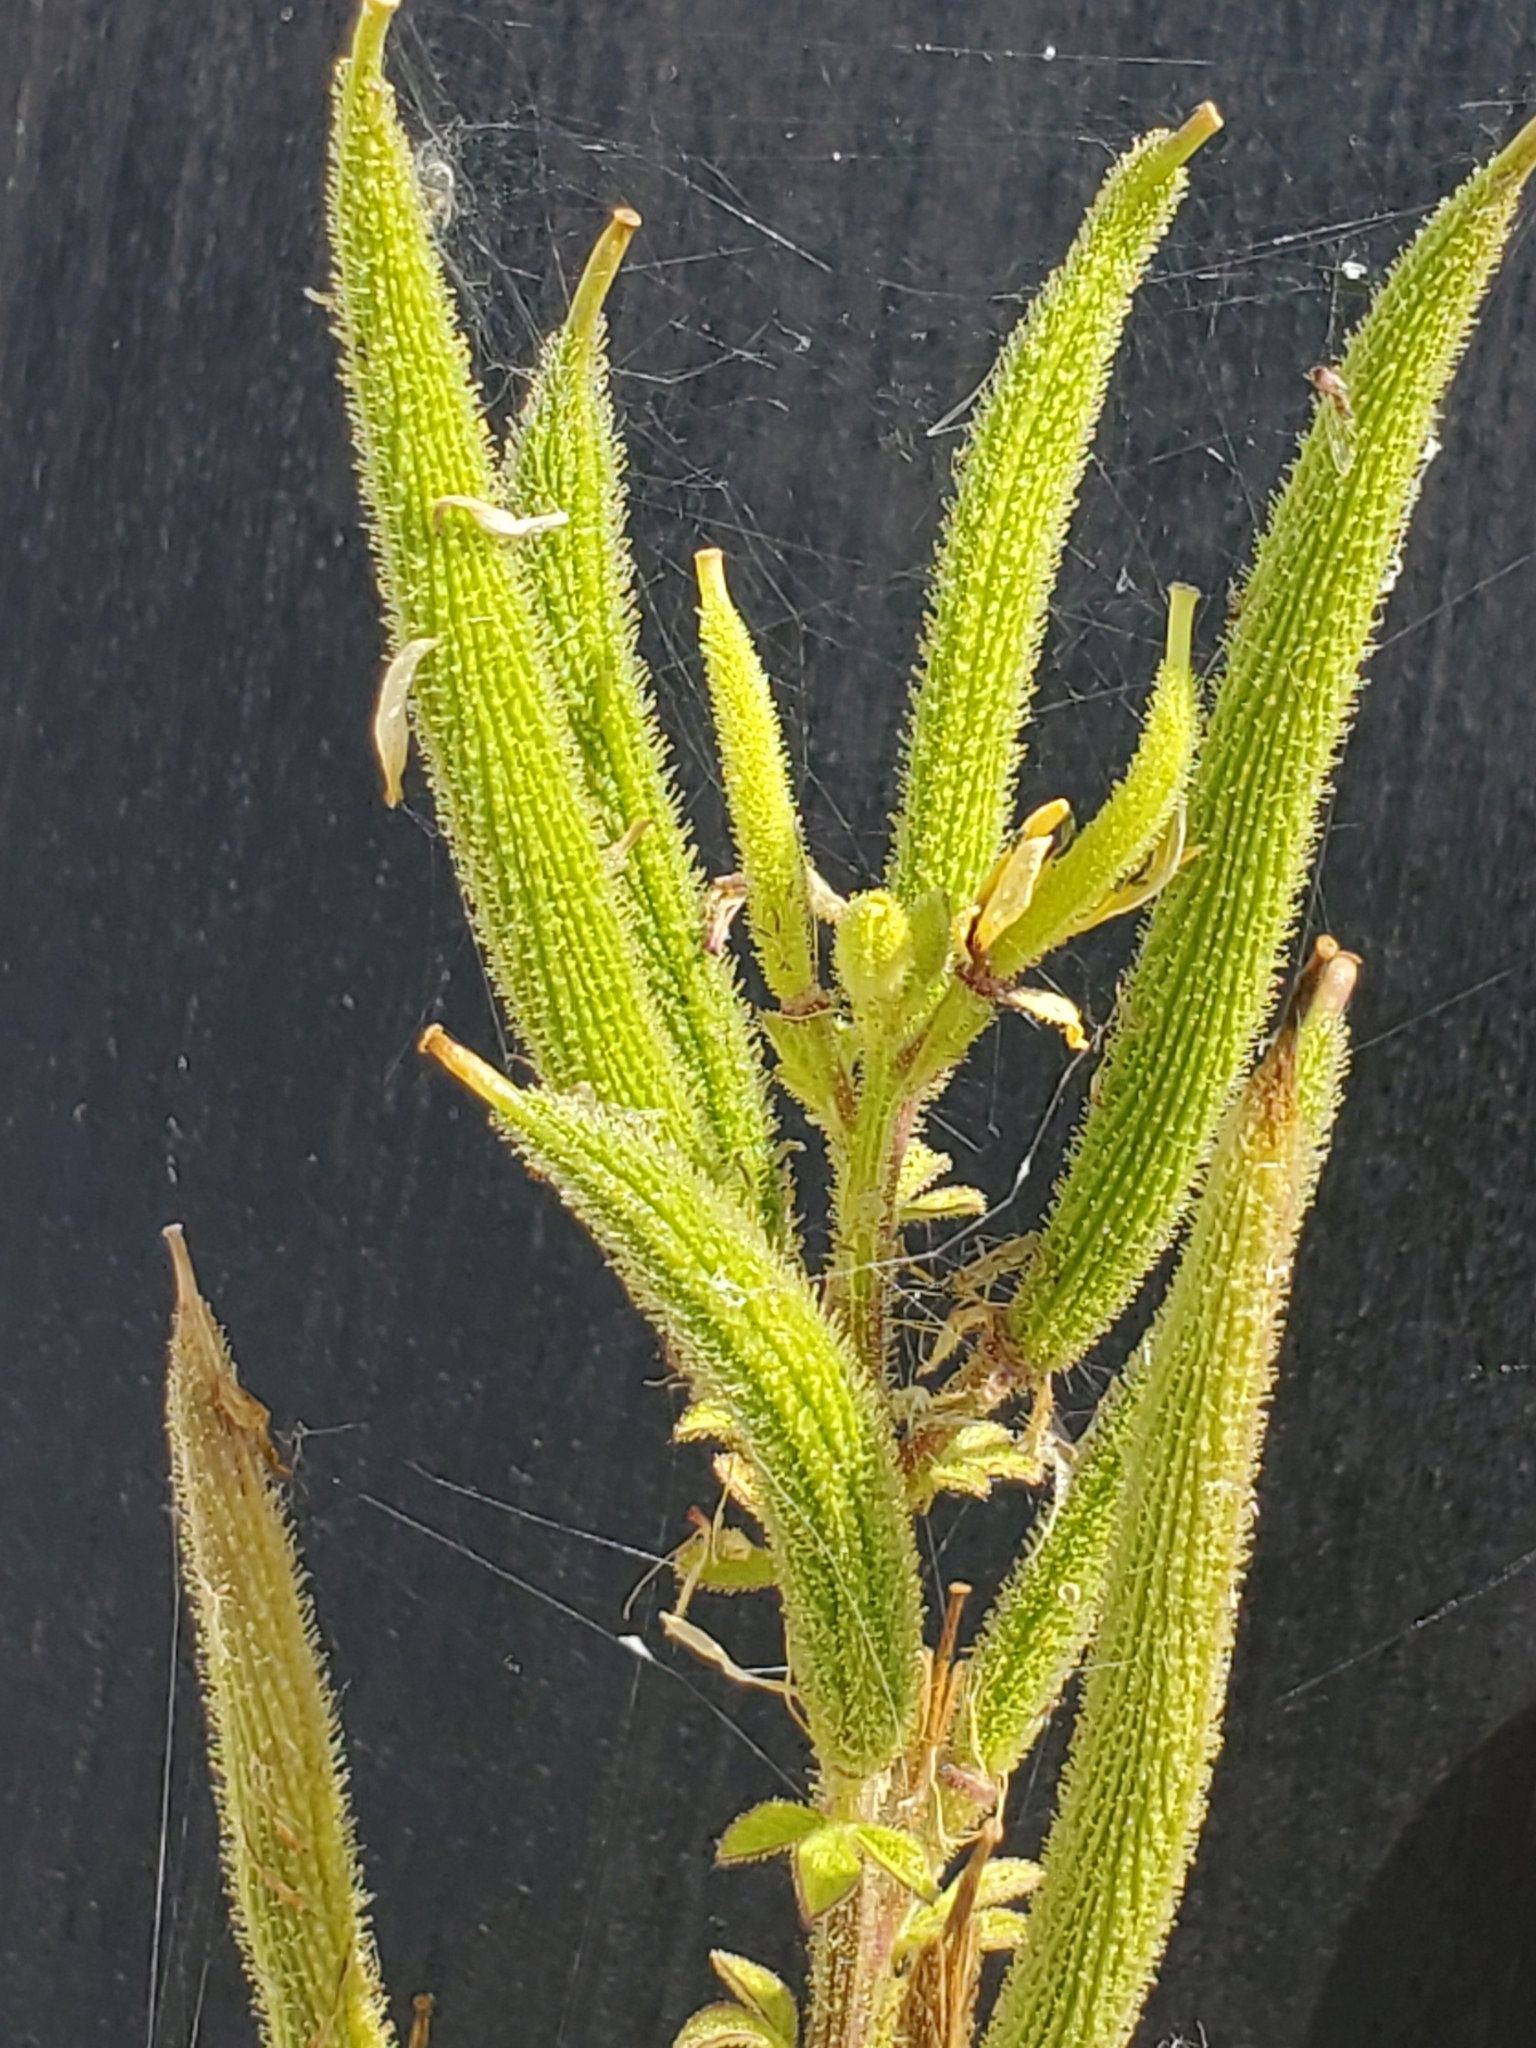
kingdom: Plantae
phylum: Tracheophyta
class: Magnoliopsida
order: Brassicales
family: Cleomaceae
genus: Arivela
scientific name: Arivela viscosa
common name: Asian spiderflower
